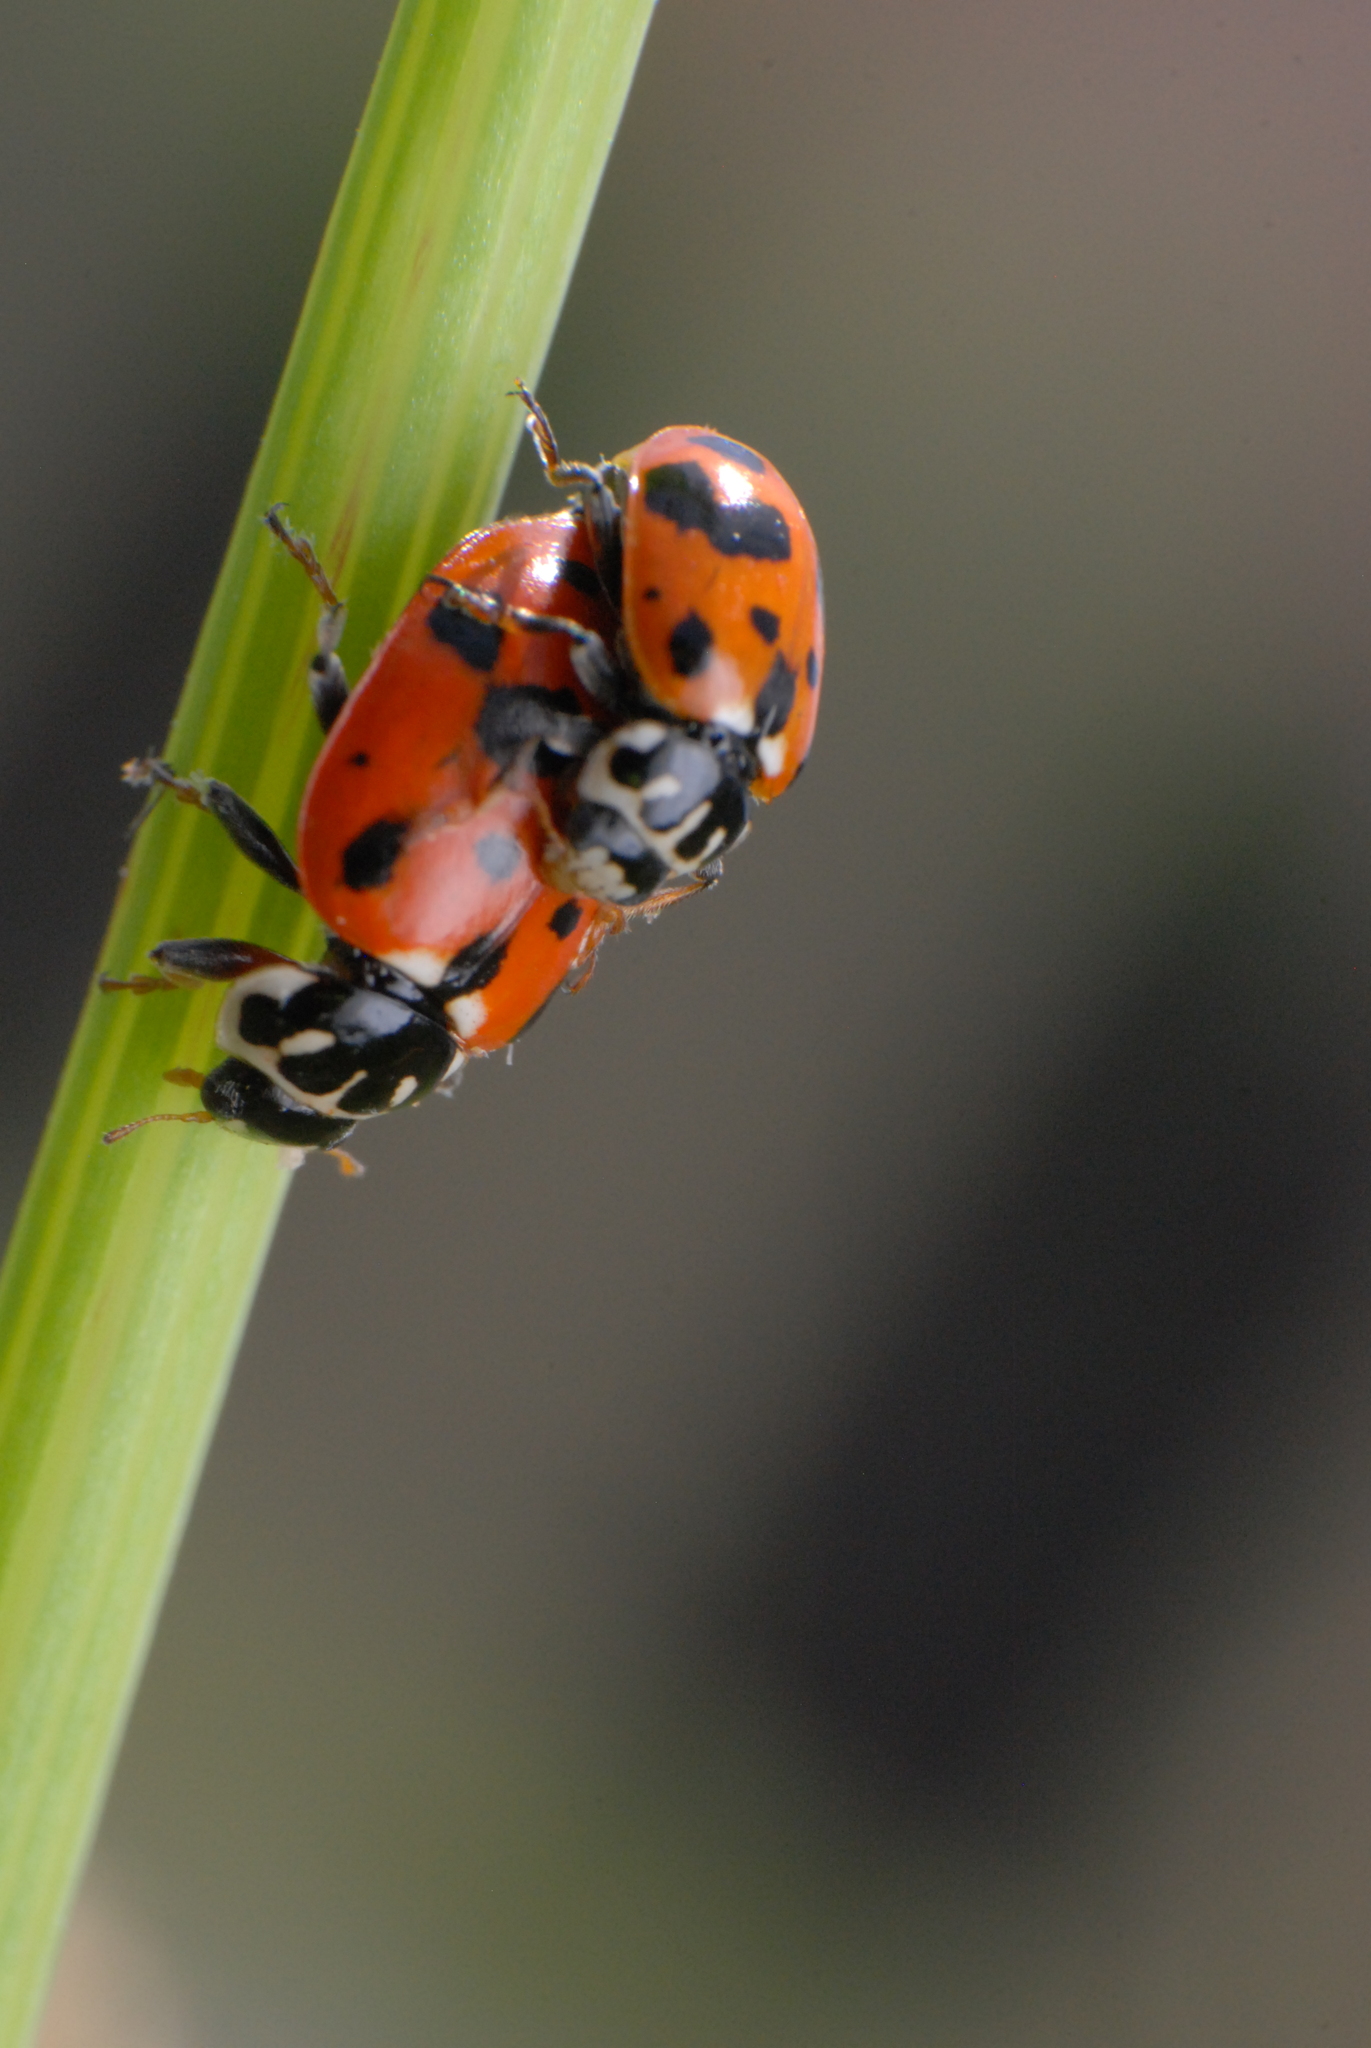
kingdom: Animalia
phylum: Arthropoda
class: Insecta
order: Coleoptera
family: Coccinellidae
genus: Hippodamia
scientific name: Hippodamia variegata
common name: Ladybird beetle
